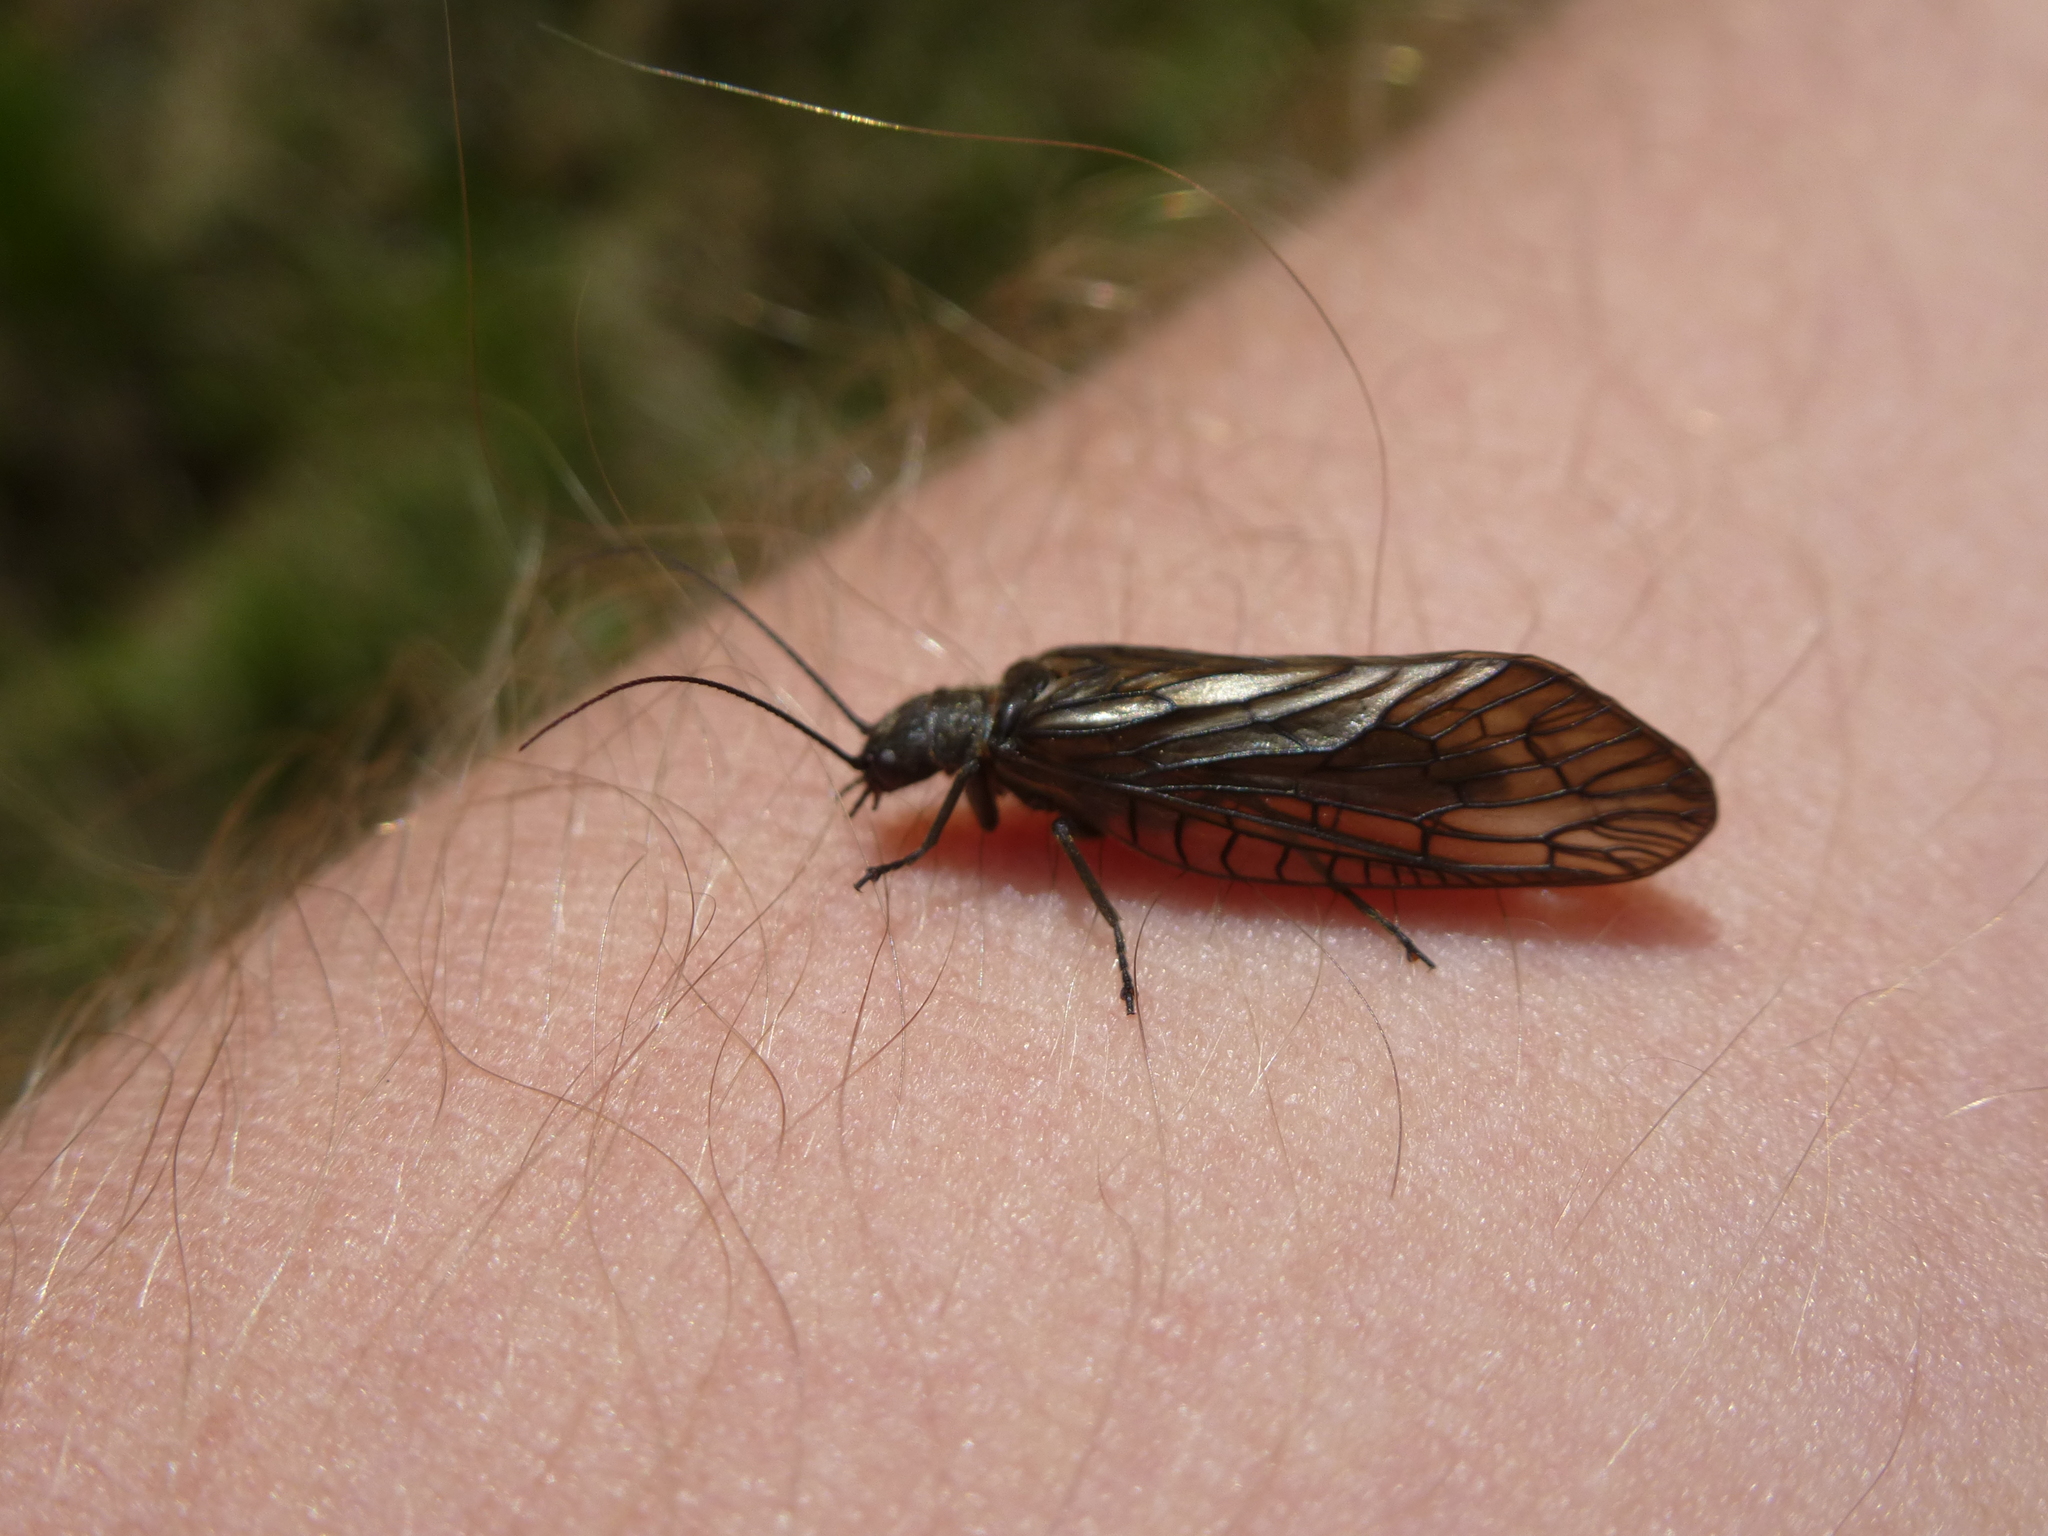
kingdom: Animalia
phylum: Arthropoda
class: Insecta
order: Megaloptera
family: Sialidae
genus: Sialis
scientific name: Sialis
